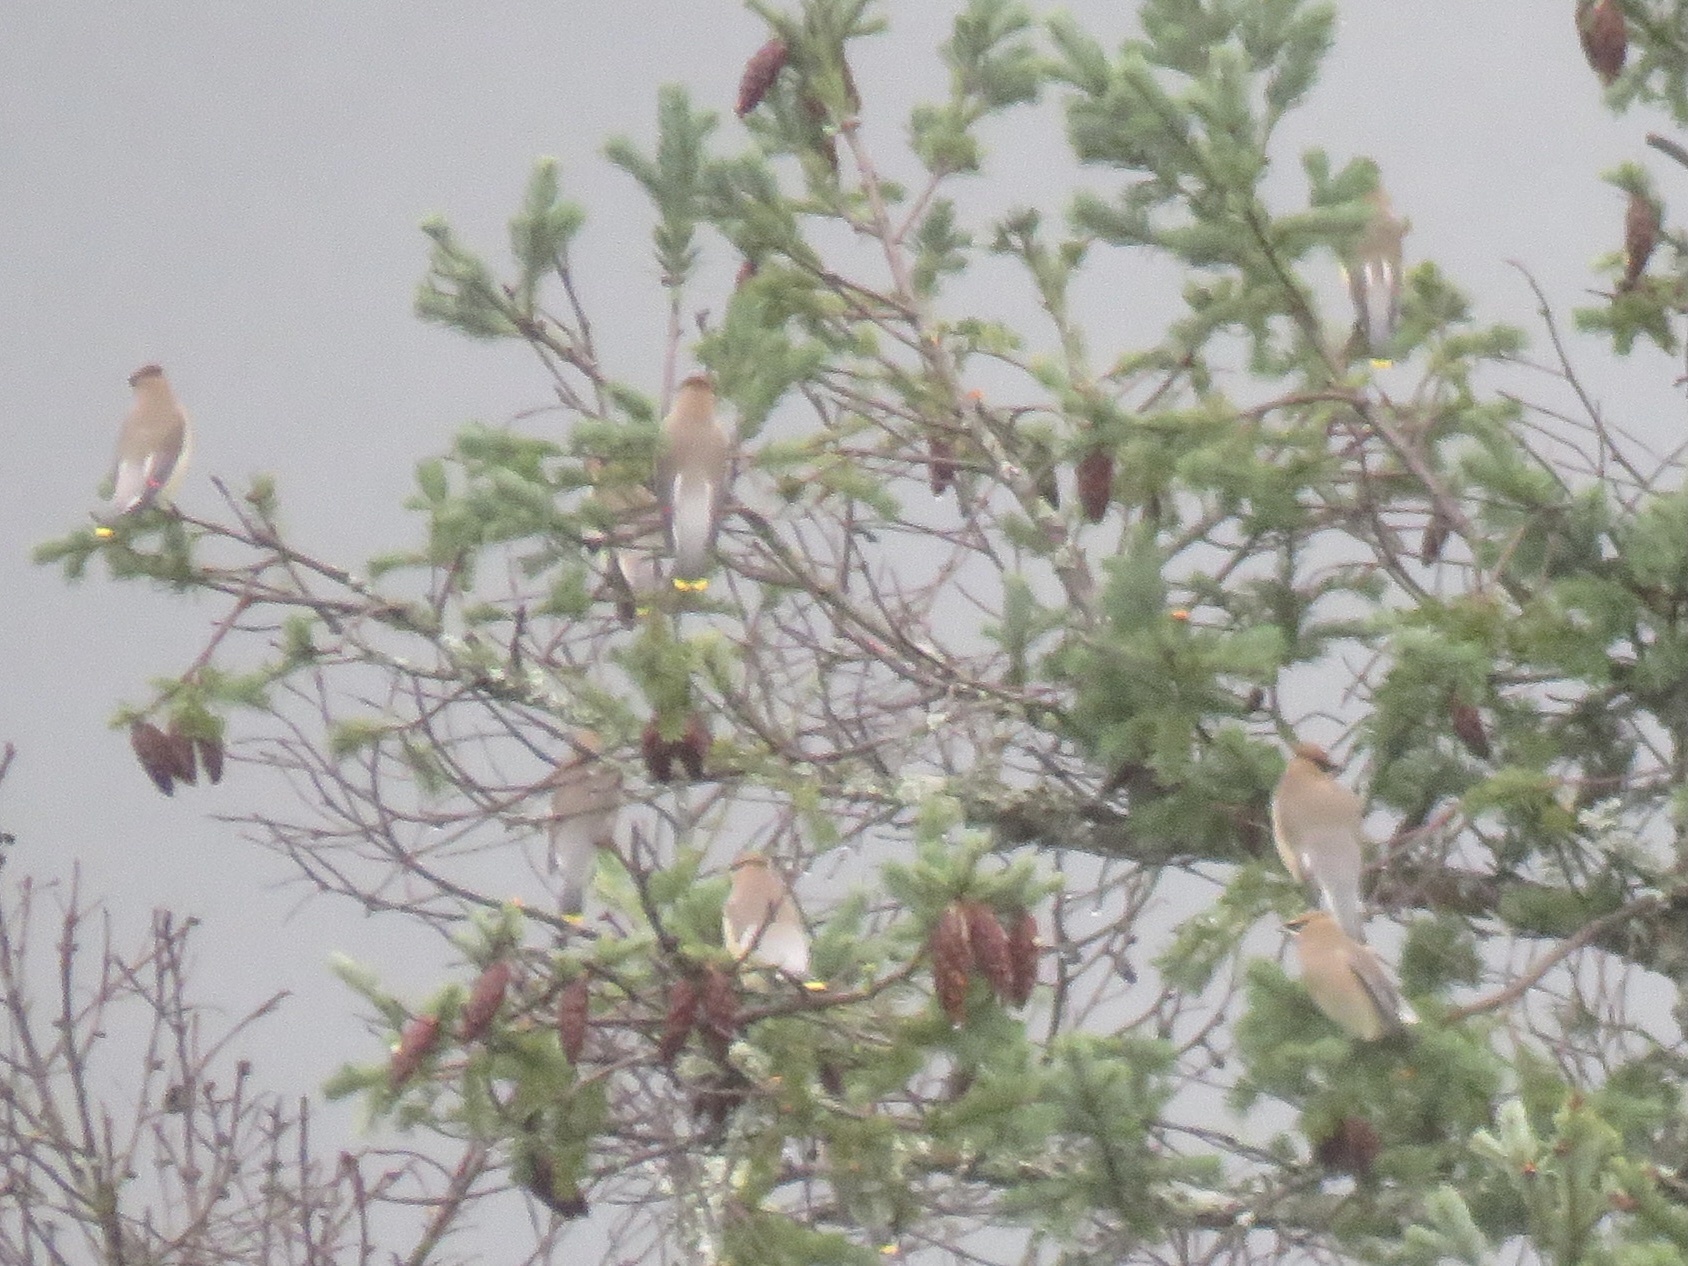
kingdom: Animalia
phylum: Chordata
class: Aves
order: Passeriformes
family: Bombycillidae
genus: Bombycilla
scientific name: Bombycilla cedrorum
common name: Cedar waxwing
